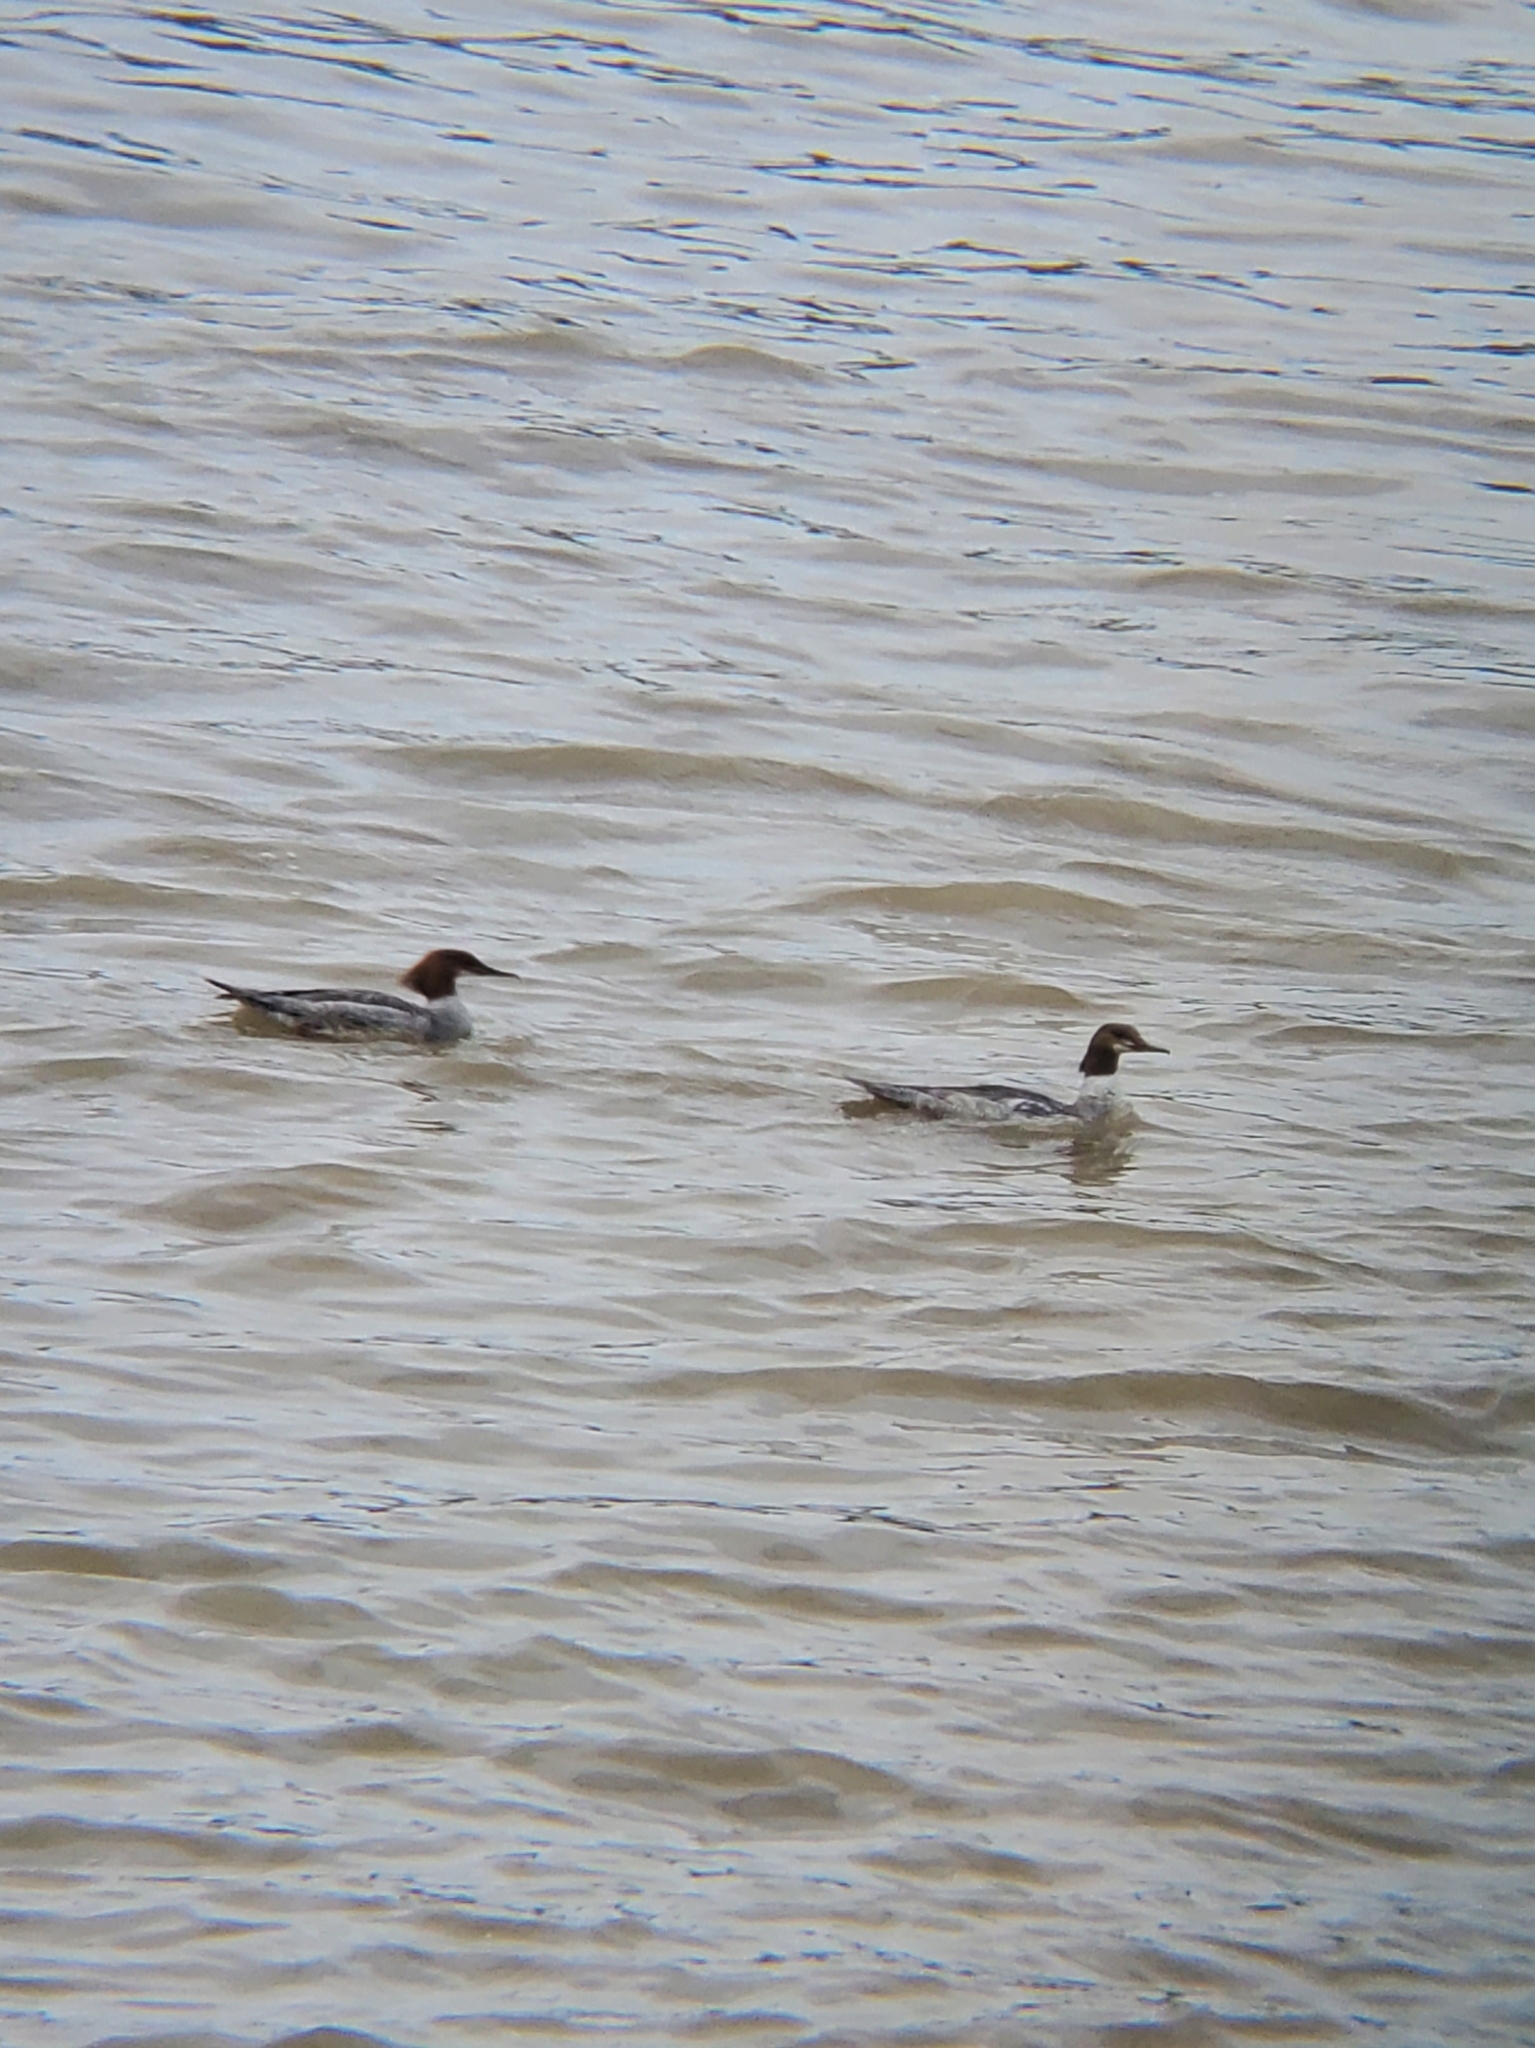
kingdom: Animalia
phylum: Chordata
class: Aves
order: Anseriformes
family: Anatidae
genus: Mergus
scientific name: Mergus merganser
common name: Common merganser
